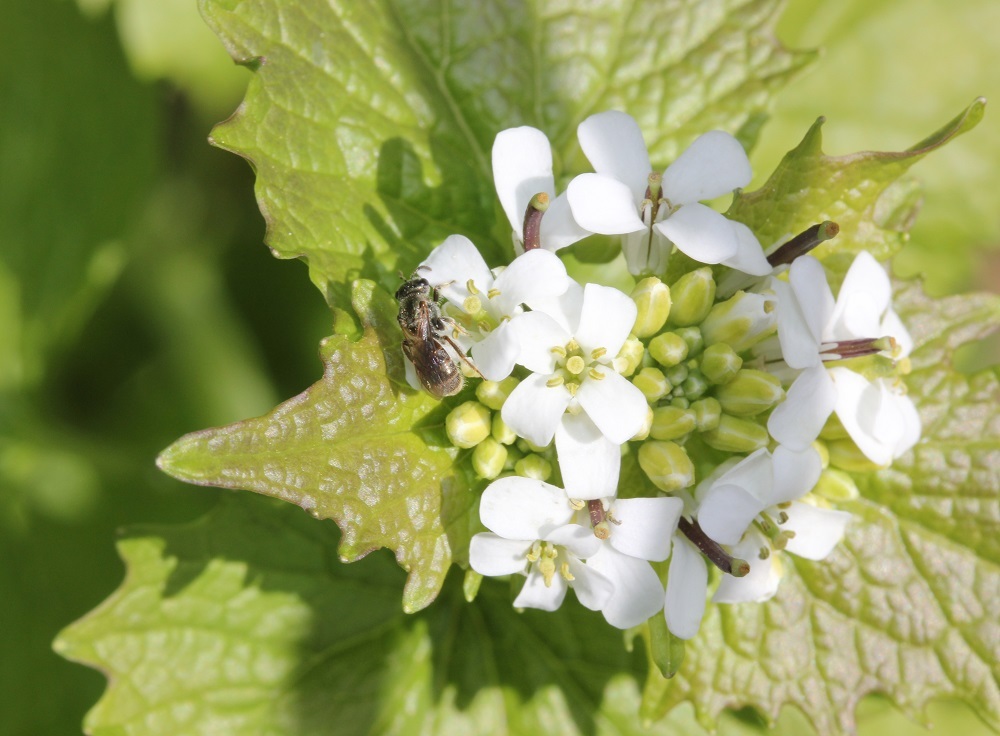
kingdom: Plantae
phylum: Tracheophyta
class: Magnoliopsida
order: Brassicales
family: Brassicaceae
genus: Alliaria
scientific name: Alliaria petiolata
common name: Garlic mustard
